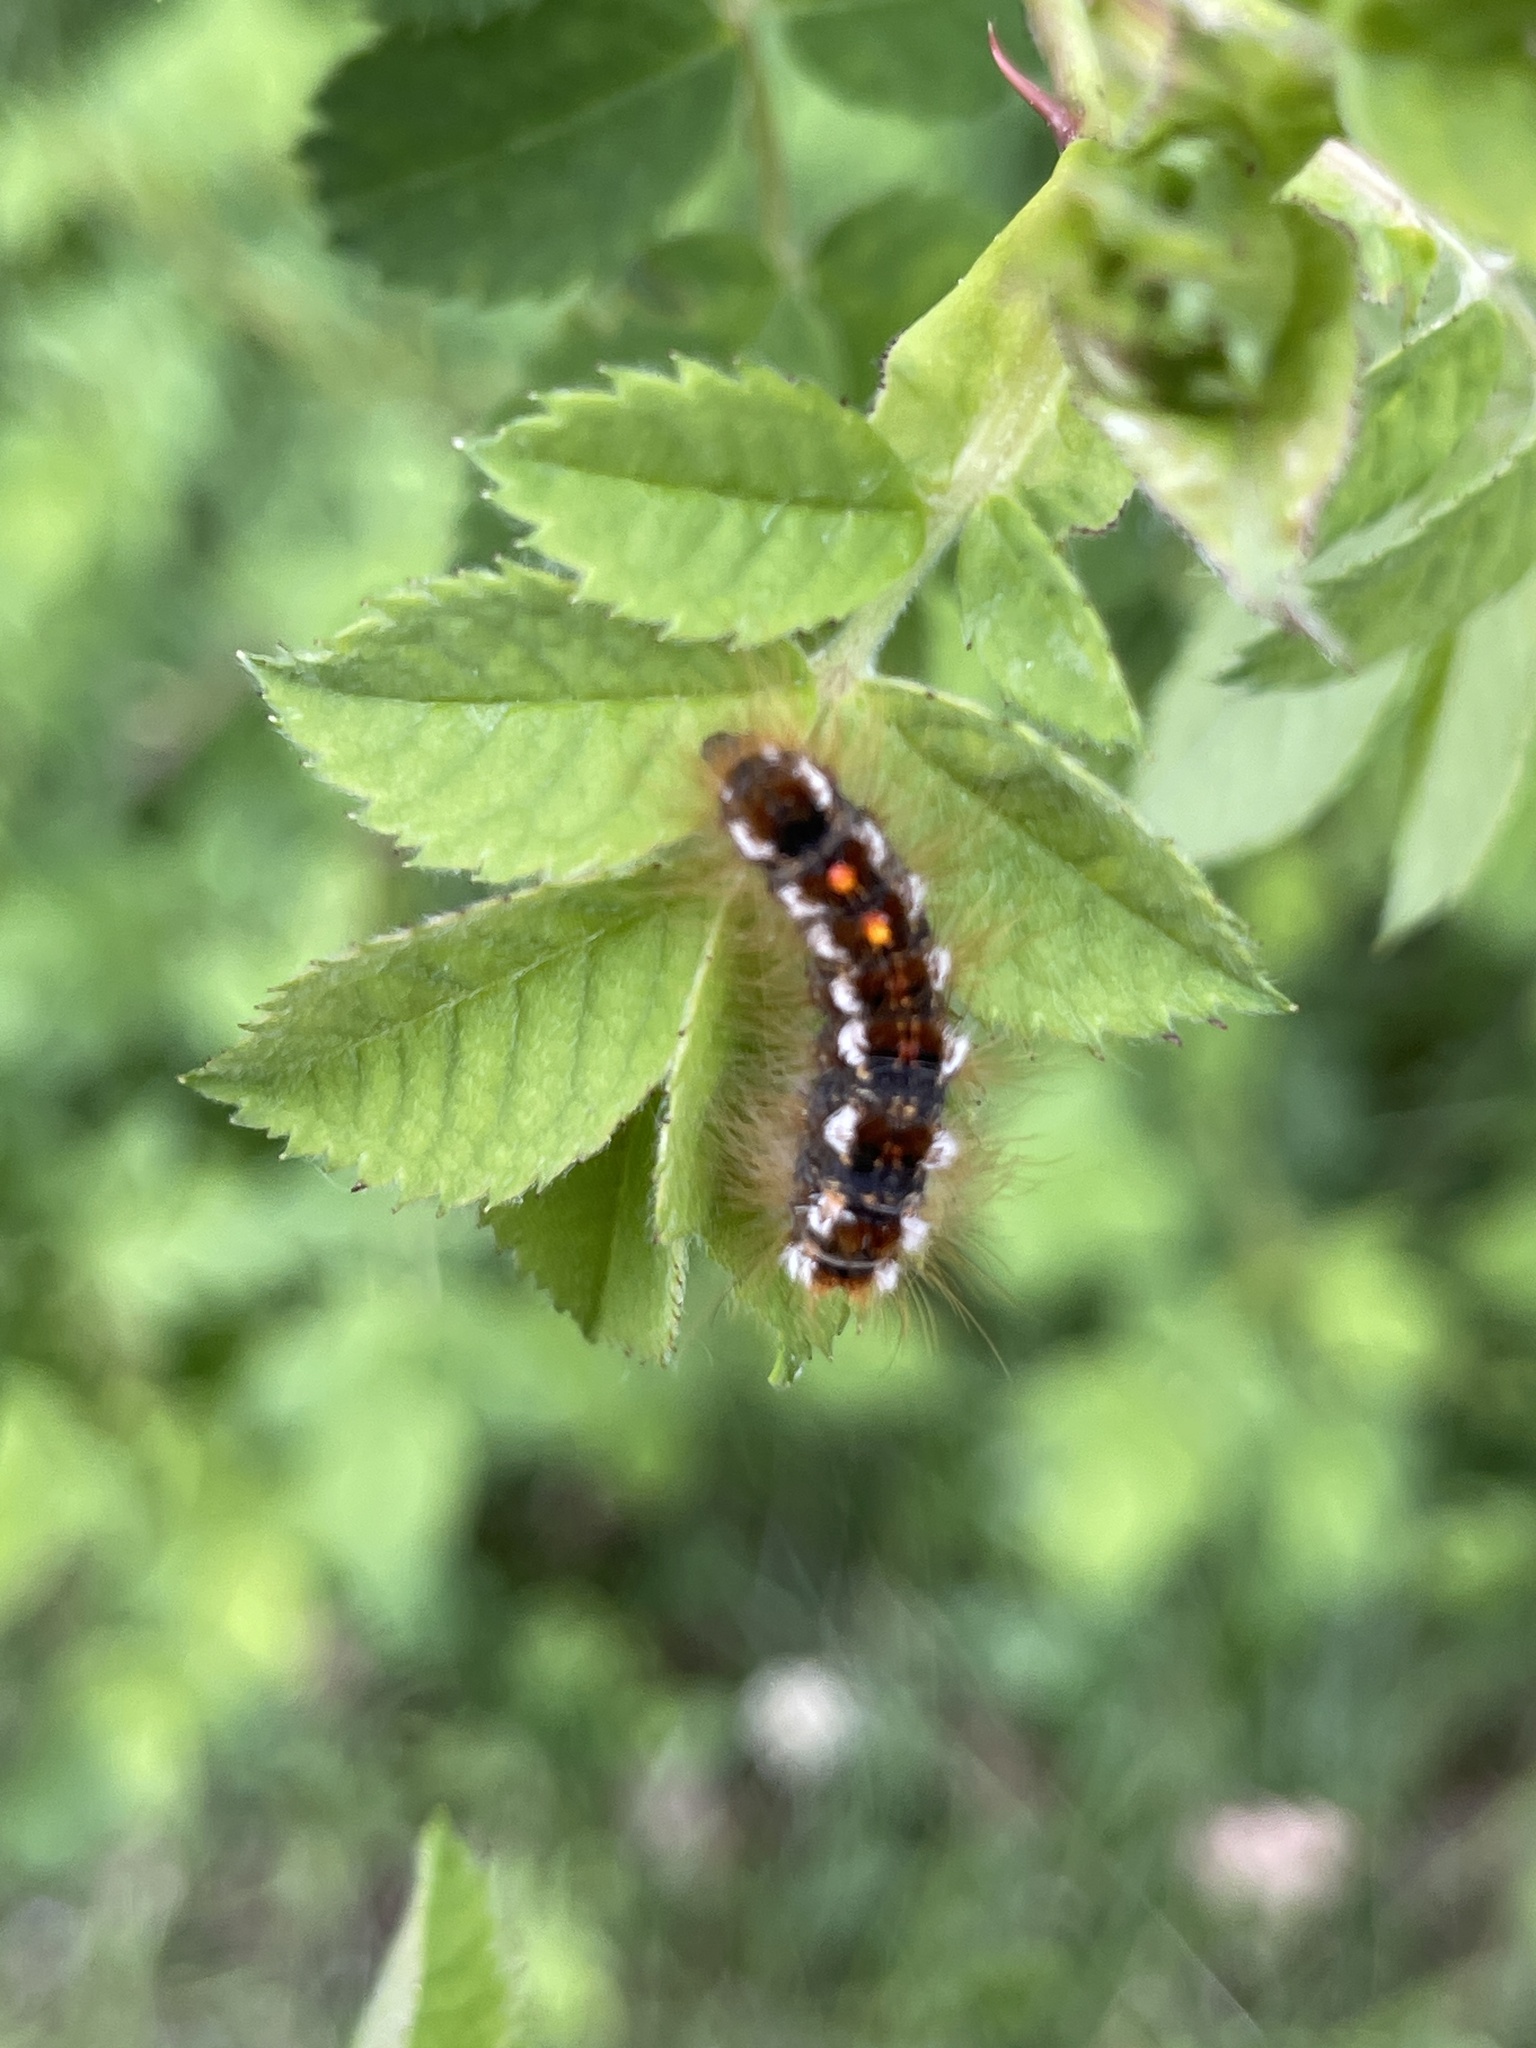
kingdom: Animalia
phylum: Arthropoda
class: Insecta
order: Lepidoptera
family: Erebidae
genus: Euproctis
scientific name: Euproctis chrysorrhoea
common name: Brown-tail
